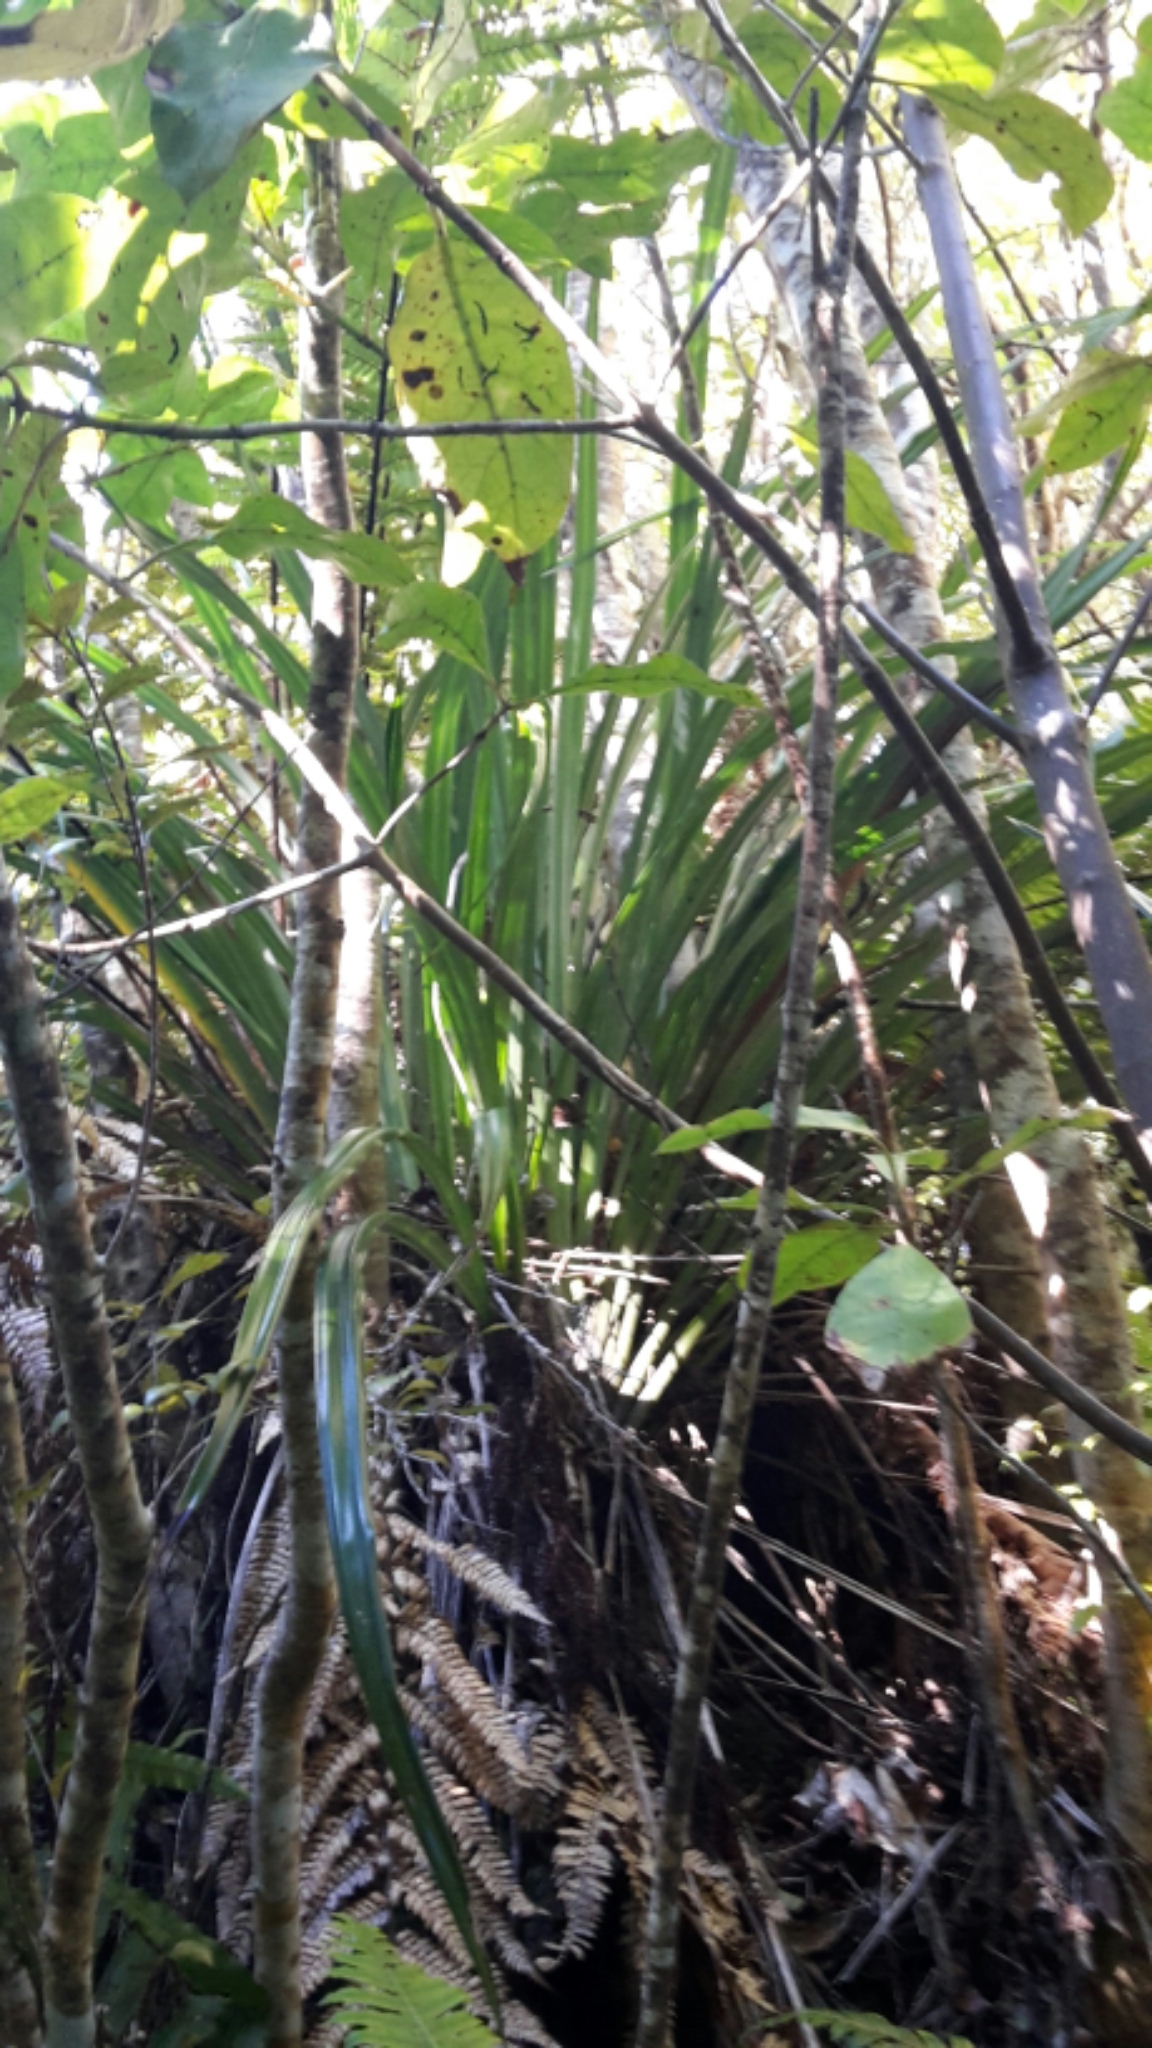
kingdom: Plantae
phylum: Tracheophyta
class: Liliopsida
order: Asparagales
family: Asteliaceae
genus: Astelia
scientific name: Astelia solandri
